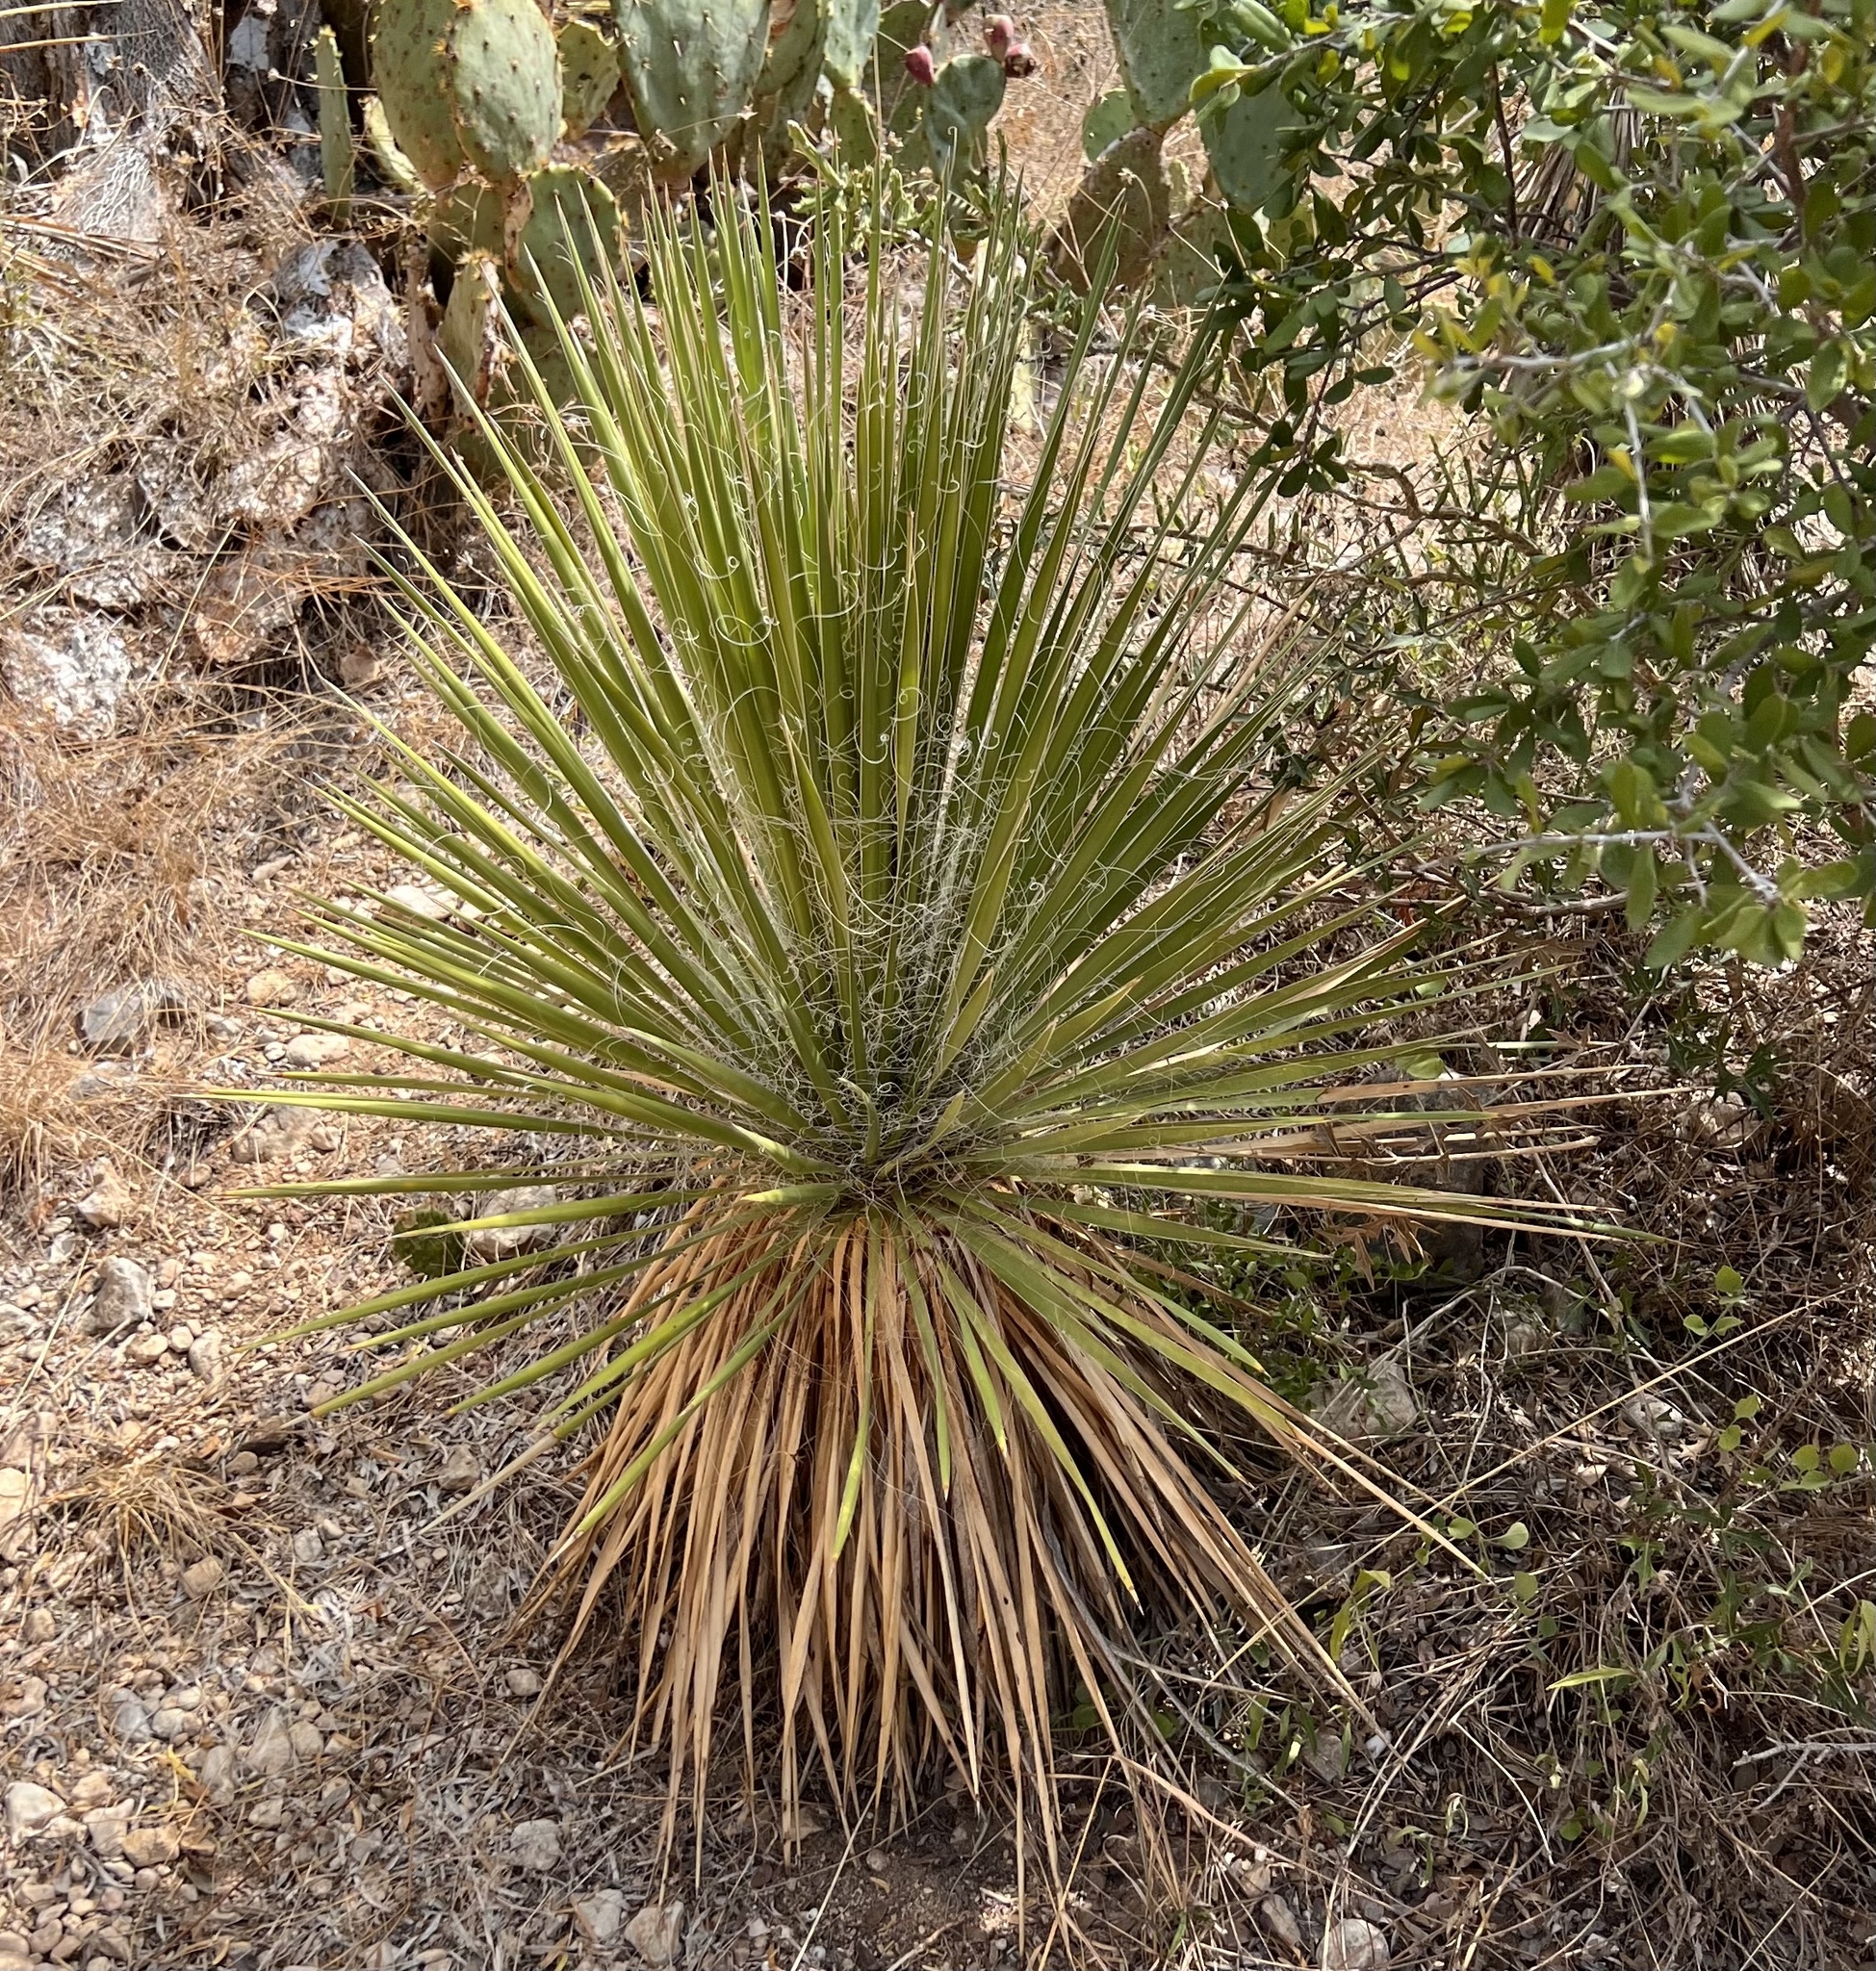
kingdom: Plantae
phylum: Tracheophyta
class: Liliopsida
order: Asparagales
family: Asparagaceae
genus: Yucca
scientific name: Yucca constricta
